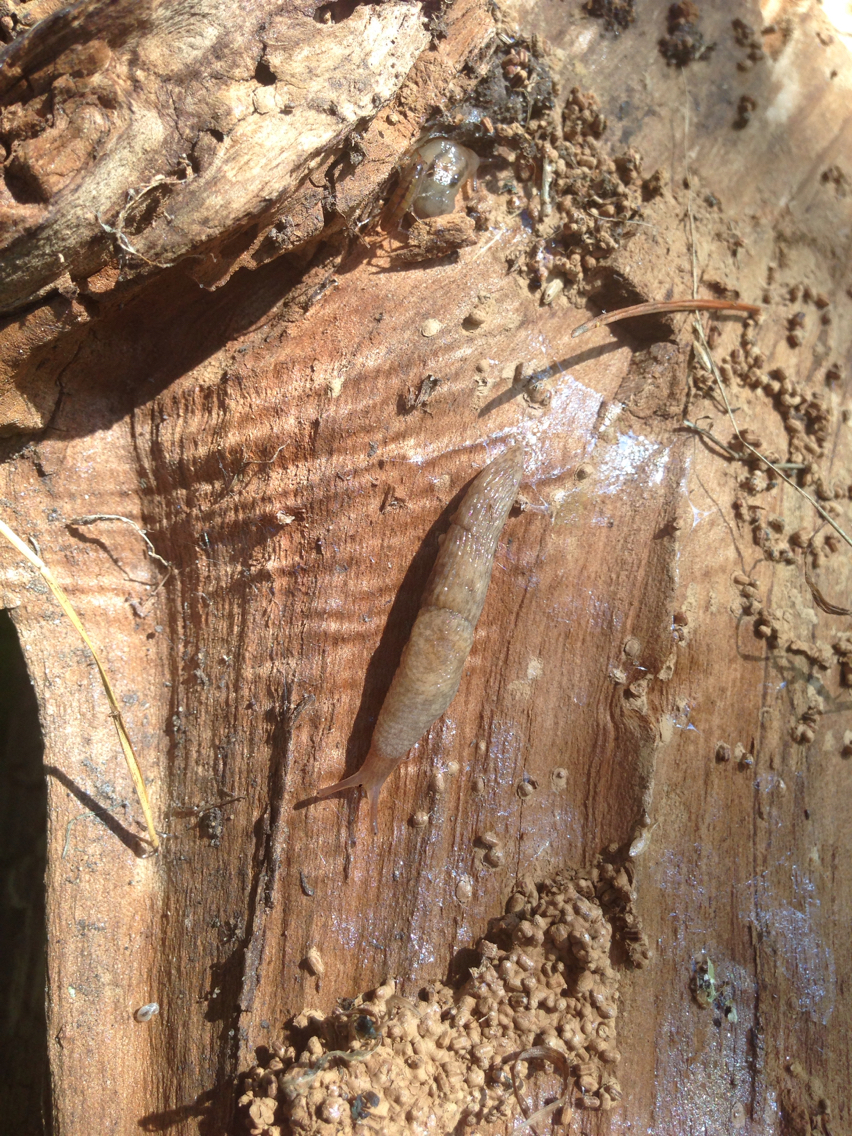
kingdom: Animalia
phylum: Mollusca
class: Gastropoda
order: Stylommatophora
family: Agriolimacidae
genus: Deroceras
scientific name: Deroceras reticulatum
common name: Gray field slug
